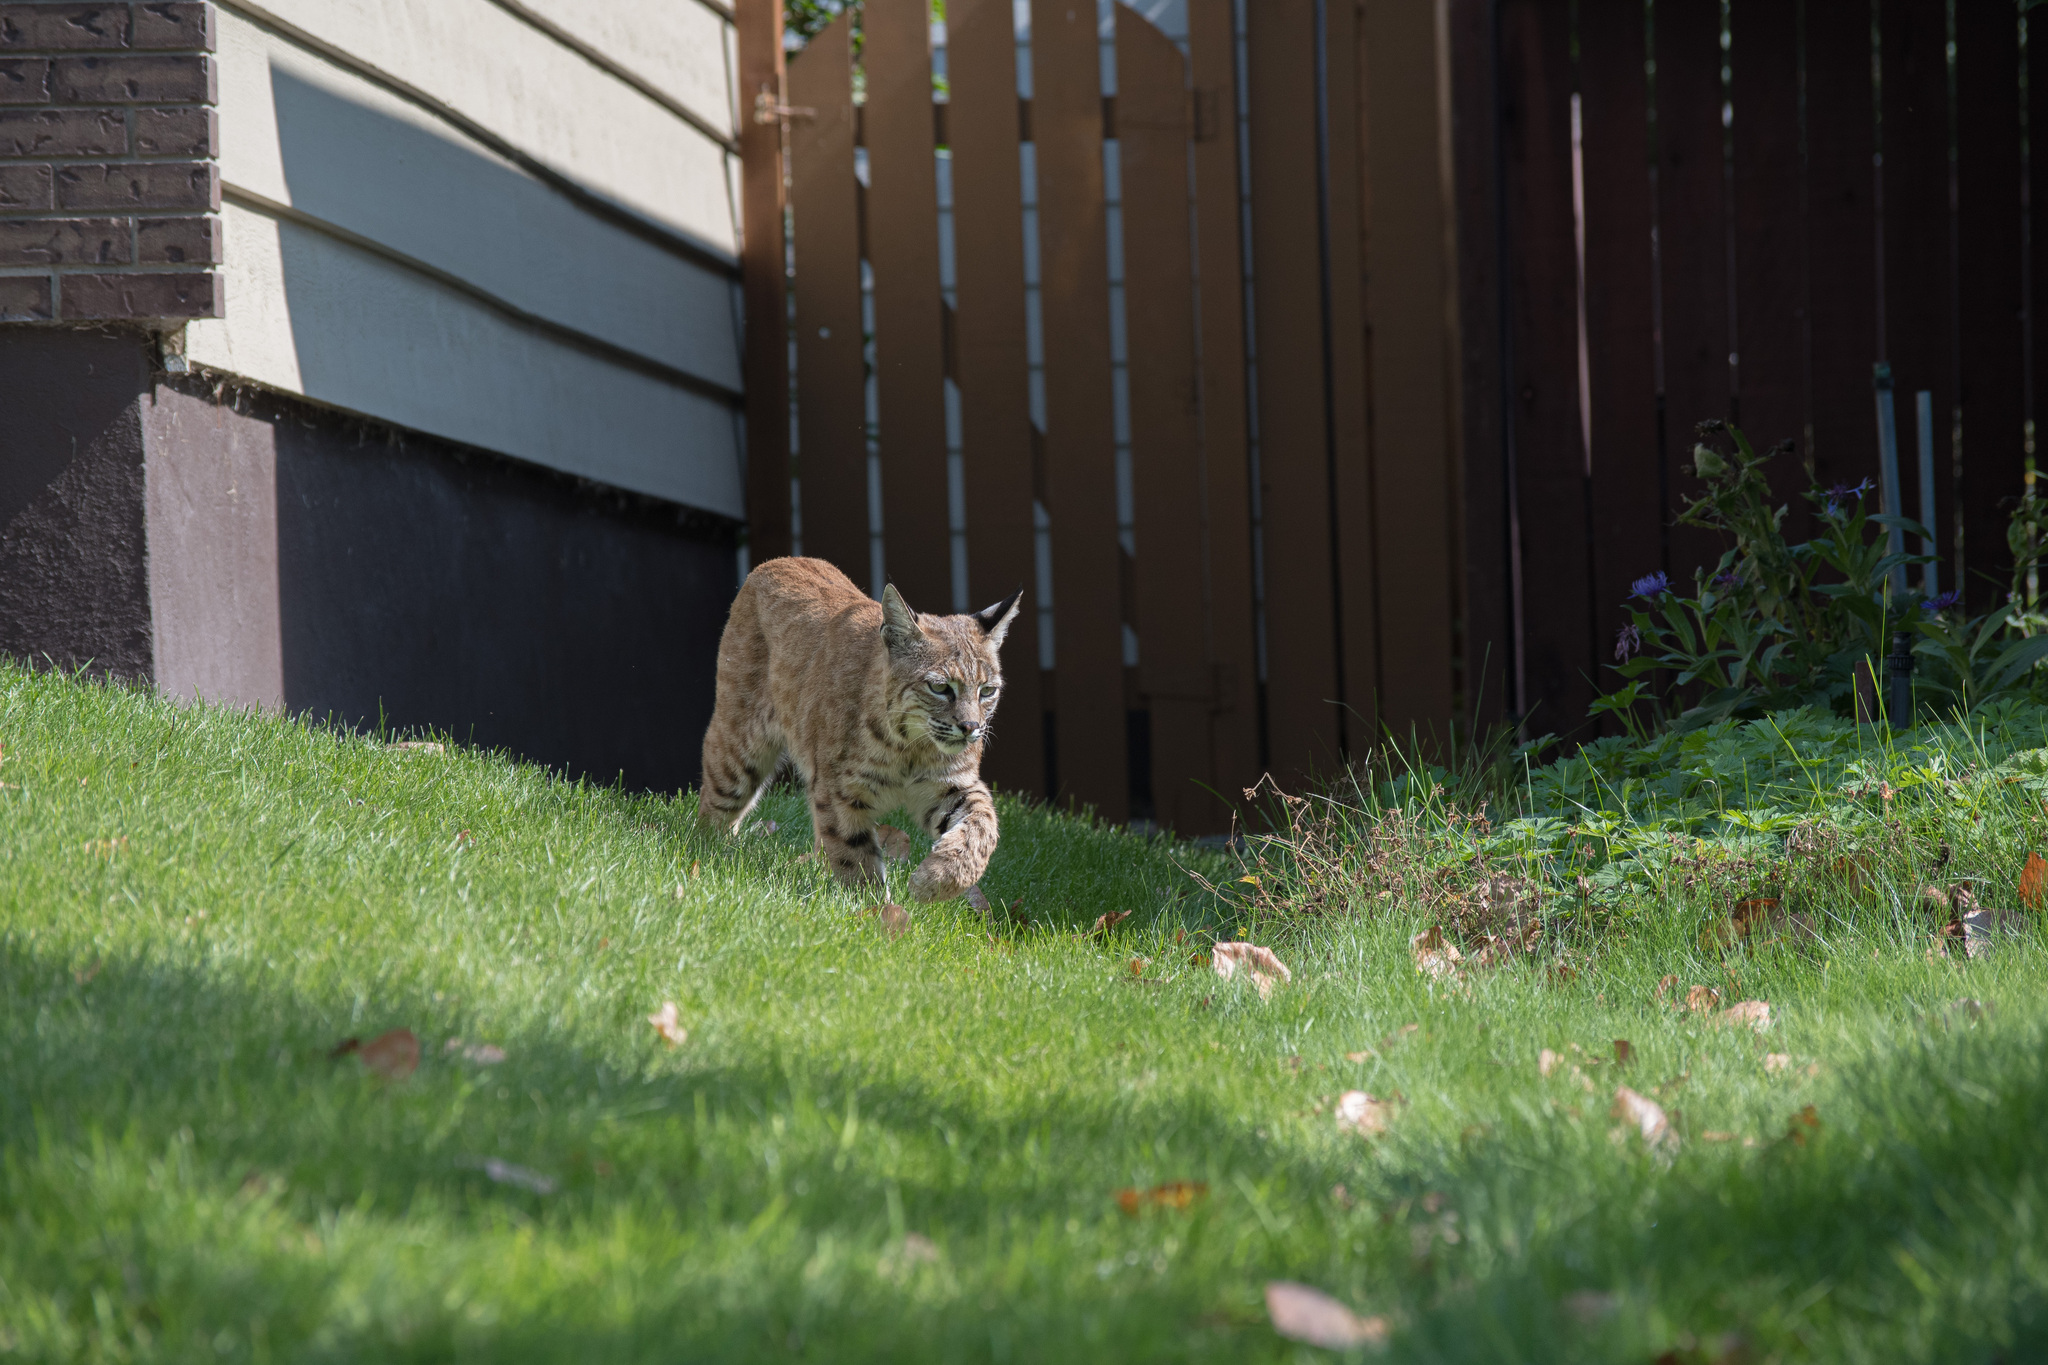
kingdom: Animalia
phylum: Chordata
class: Mammalia
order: Carnivora
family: Felidae
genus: Lynx
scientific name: Lynx rufus
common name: Bobcat
